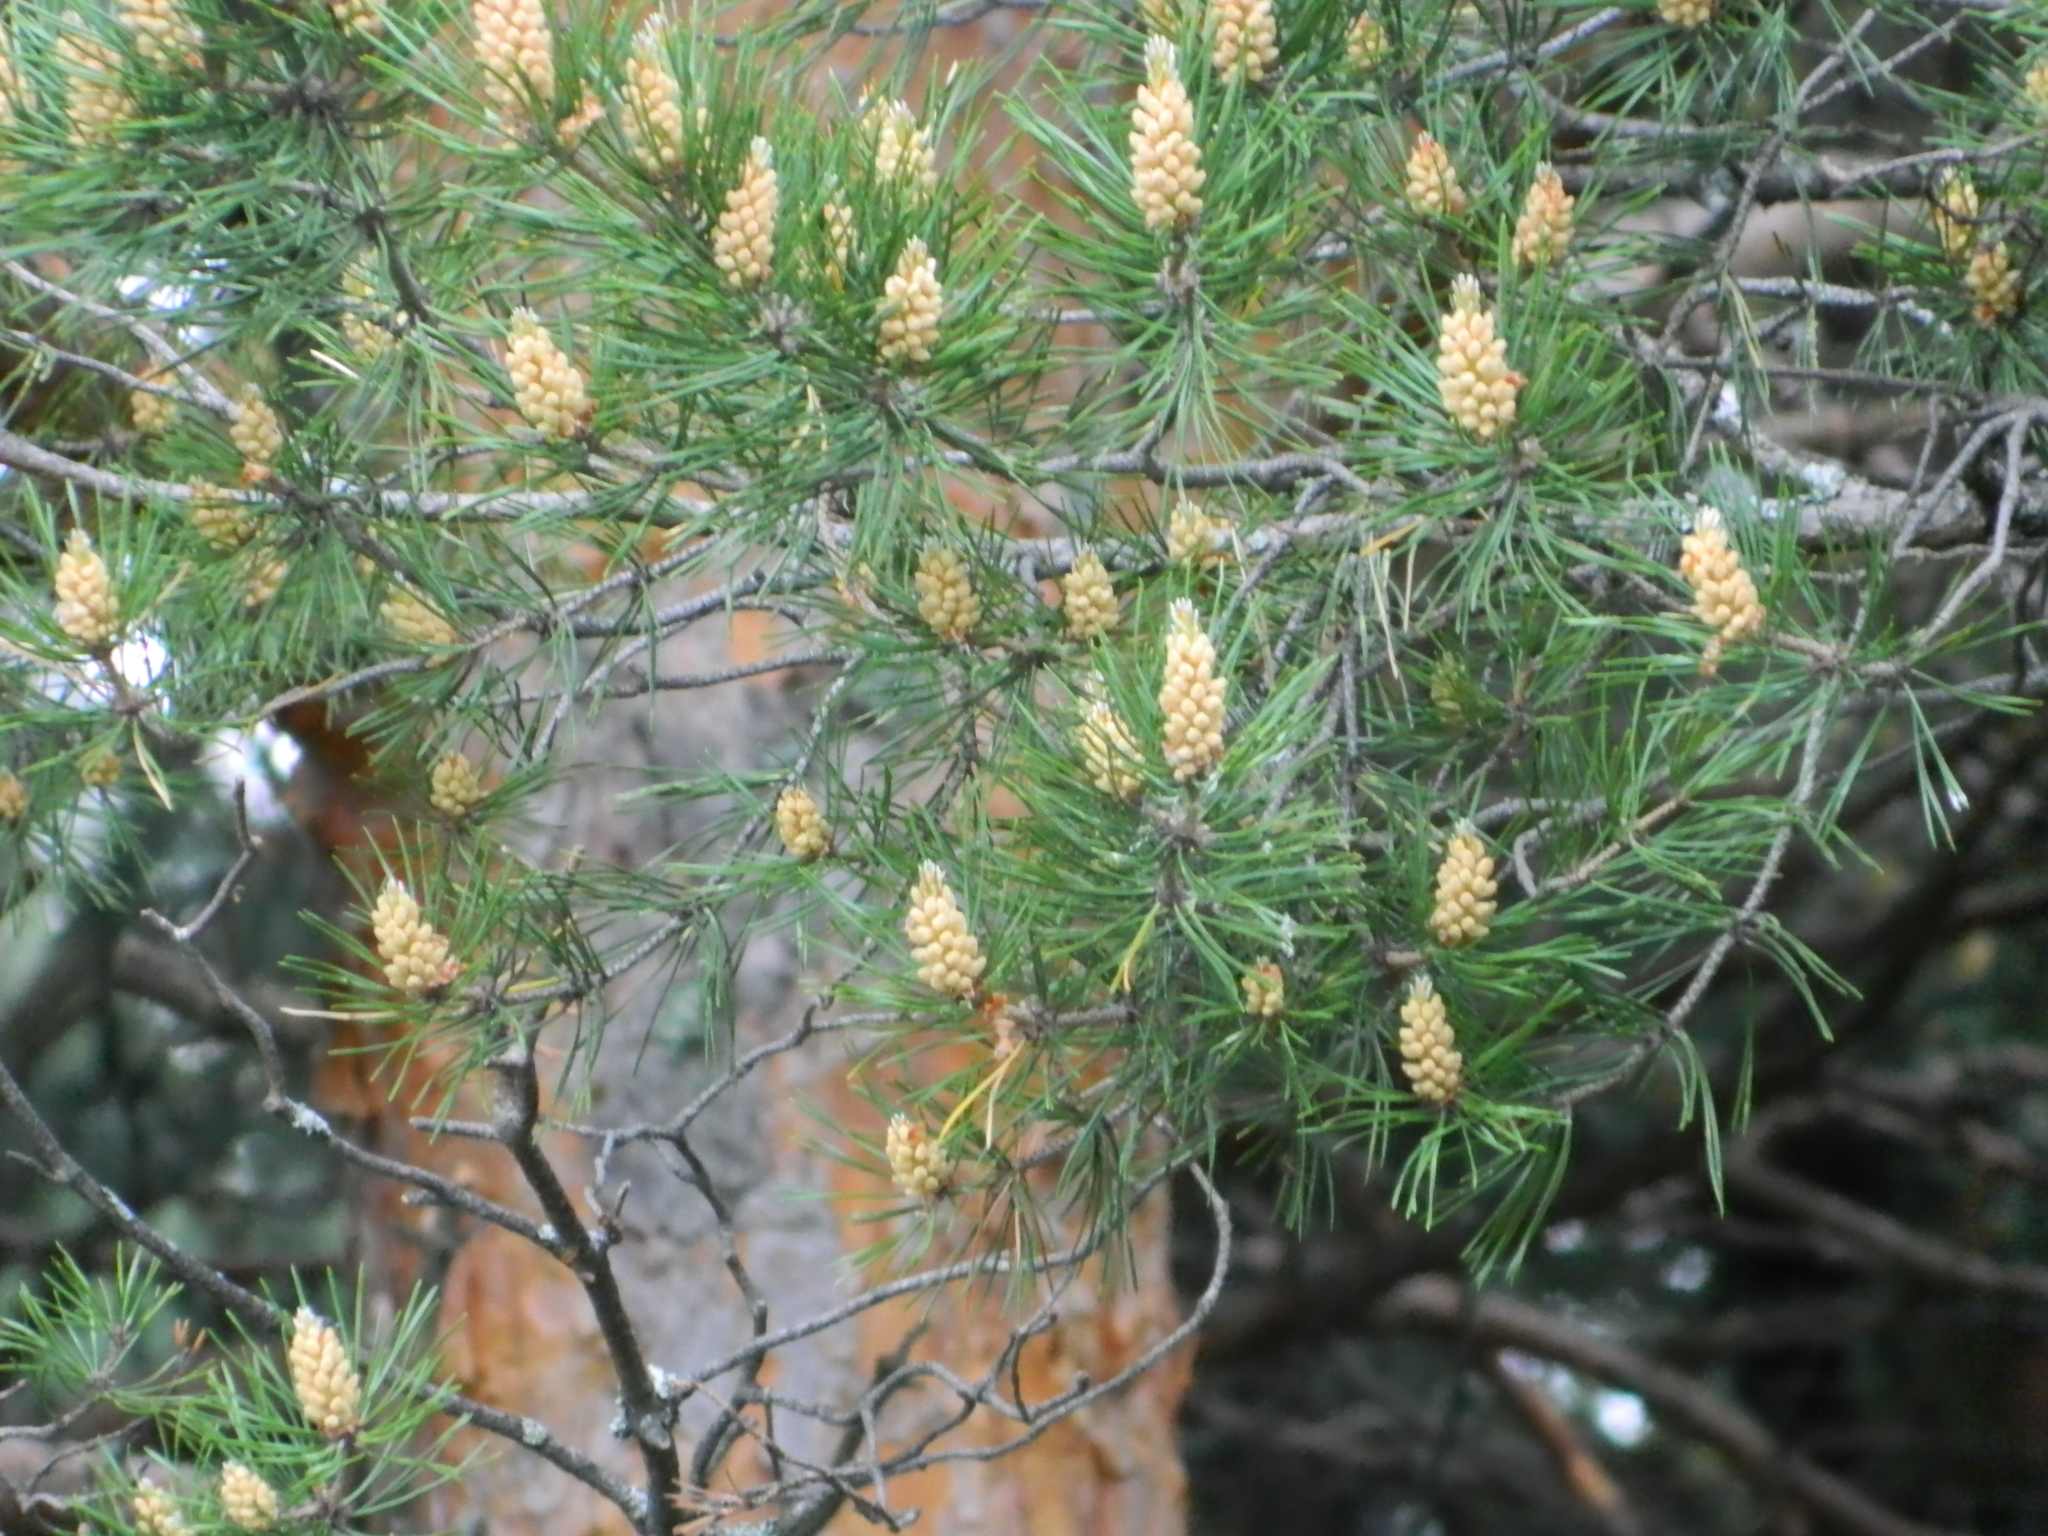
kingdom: Plantae
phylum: Tracheophyta
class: Pinopsida
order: Pinales
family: Pinaceae
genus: Pinus
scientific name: Pinus sylvestris
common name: Scots pine
